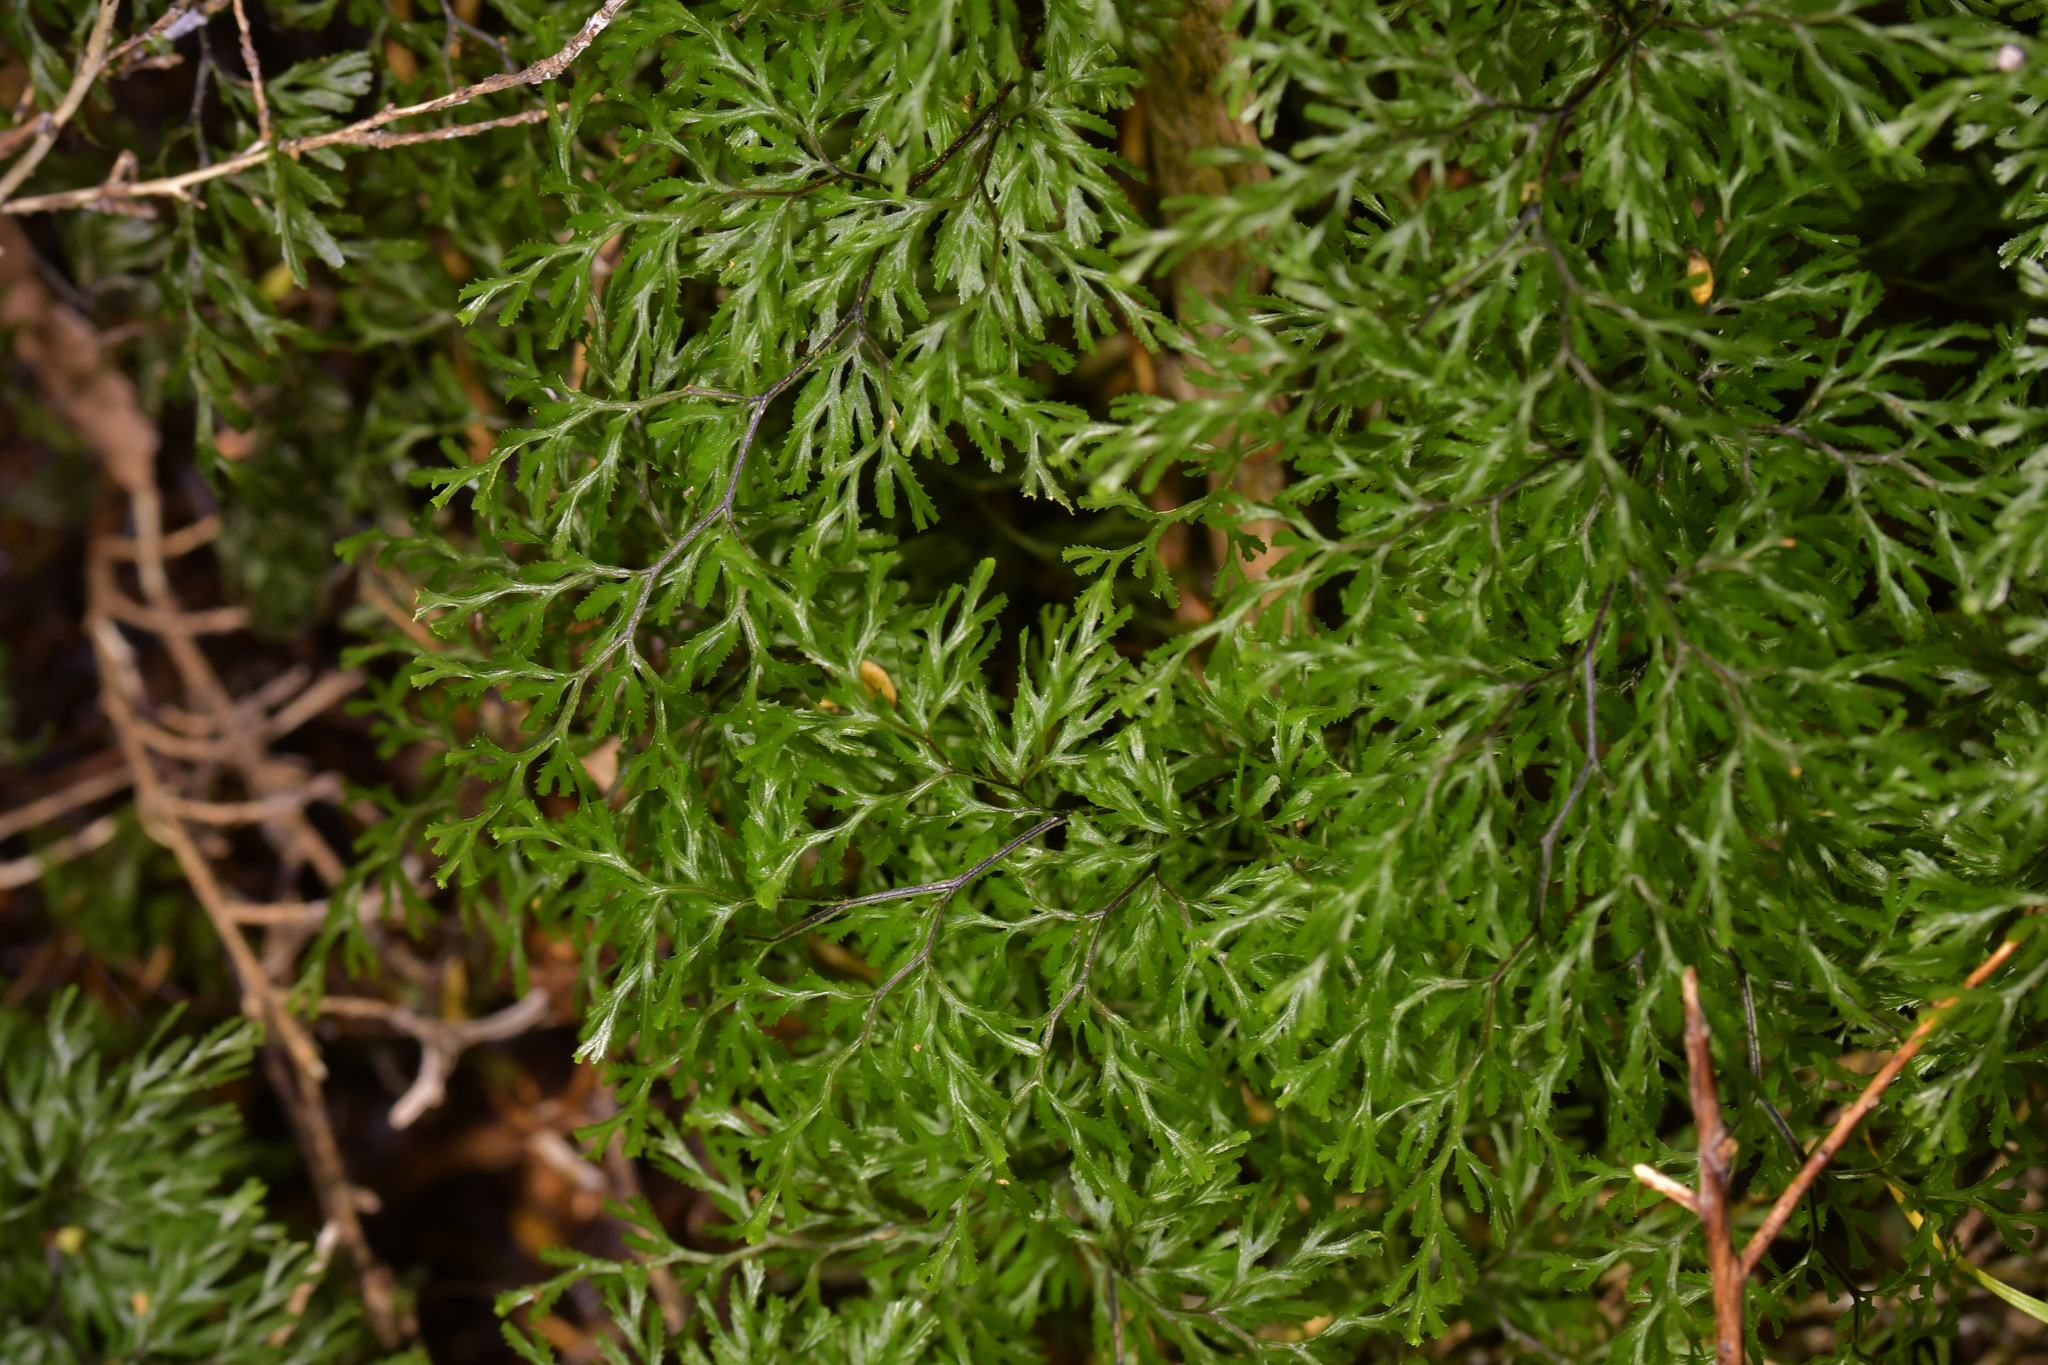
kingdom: Plantae
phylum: Tracheophyta
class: Polypodiopsida
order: Hymenophyllales
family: Hymenophyllaceae
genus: Hymenophyllum
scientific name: Hymenophyllum multifidum
